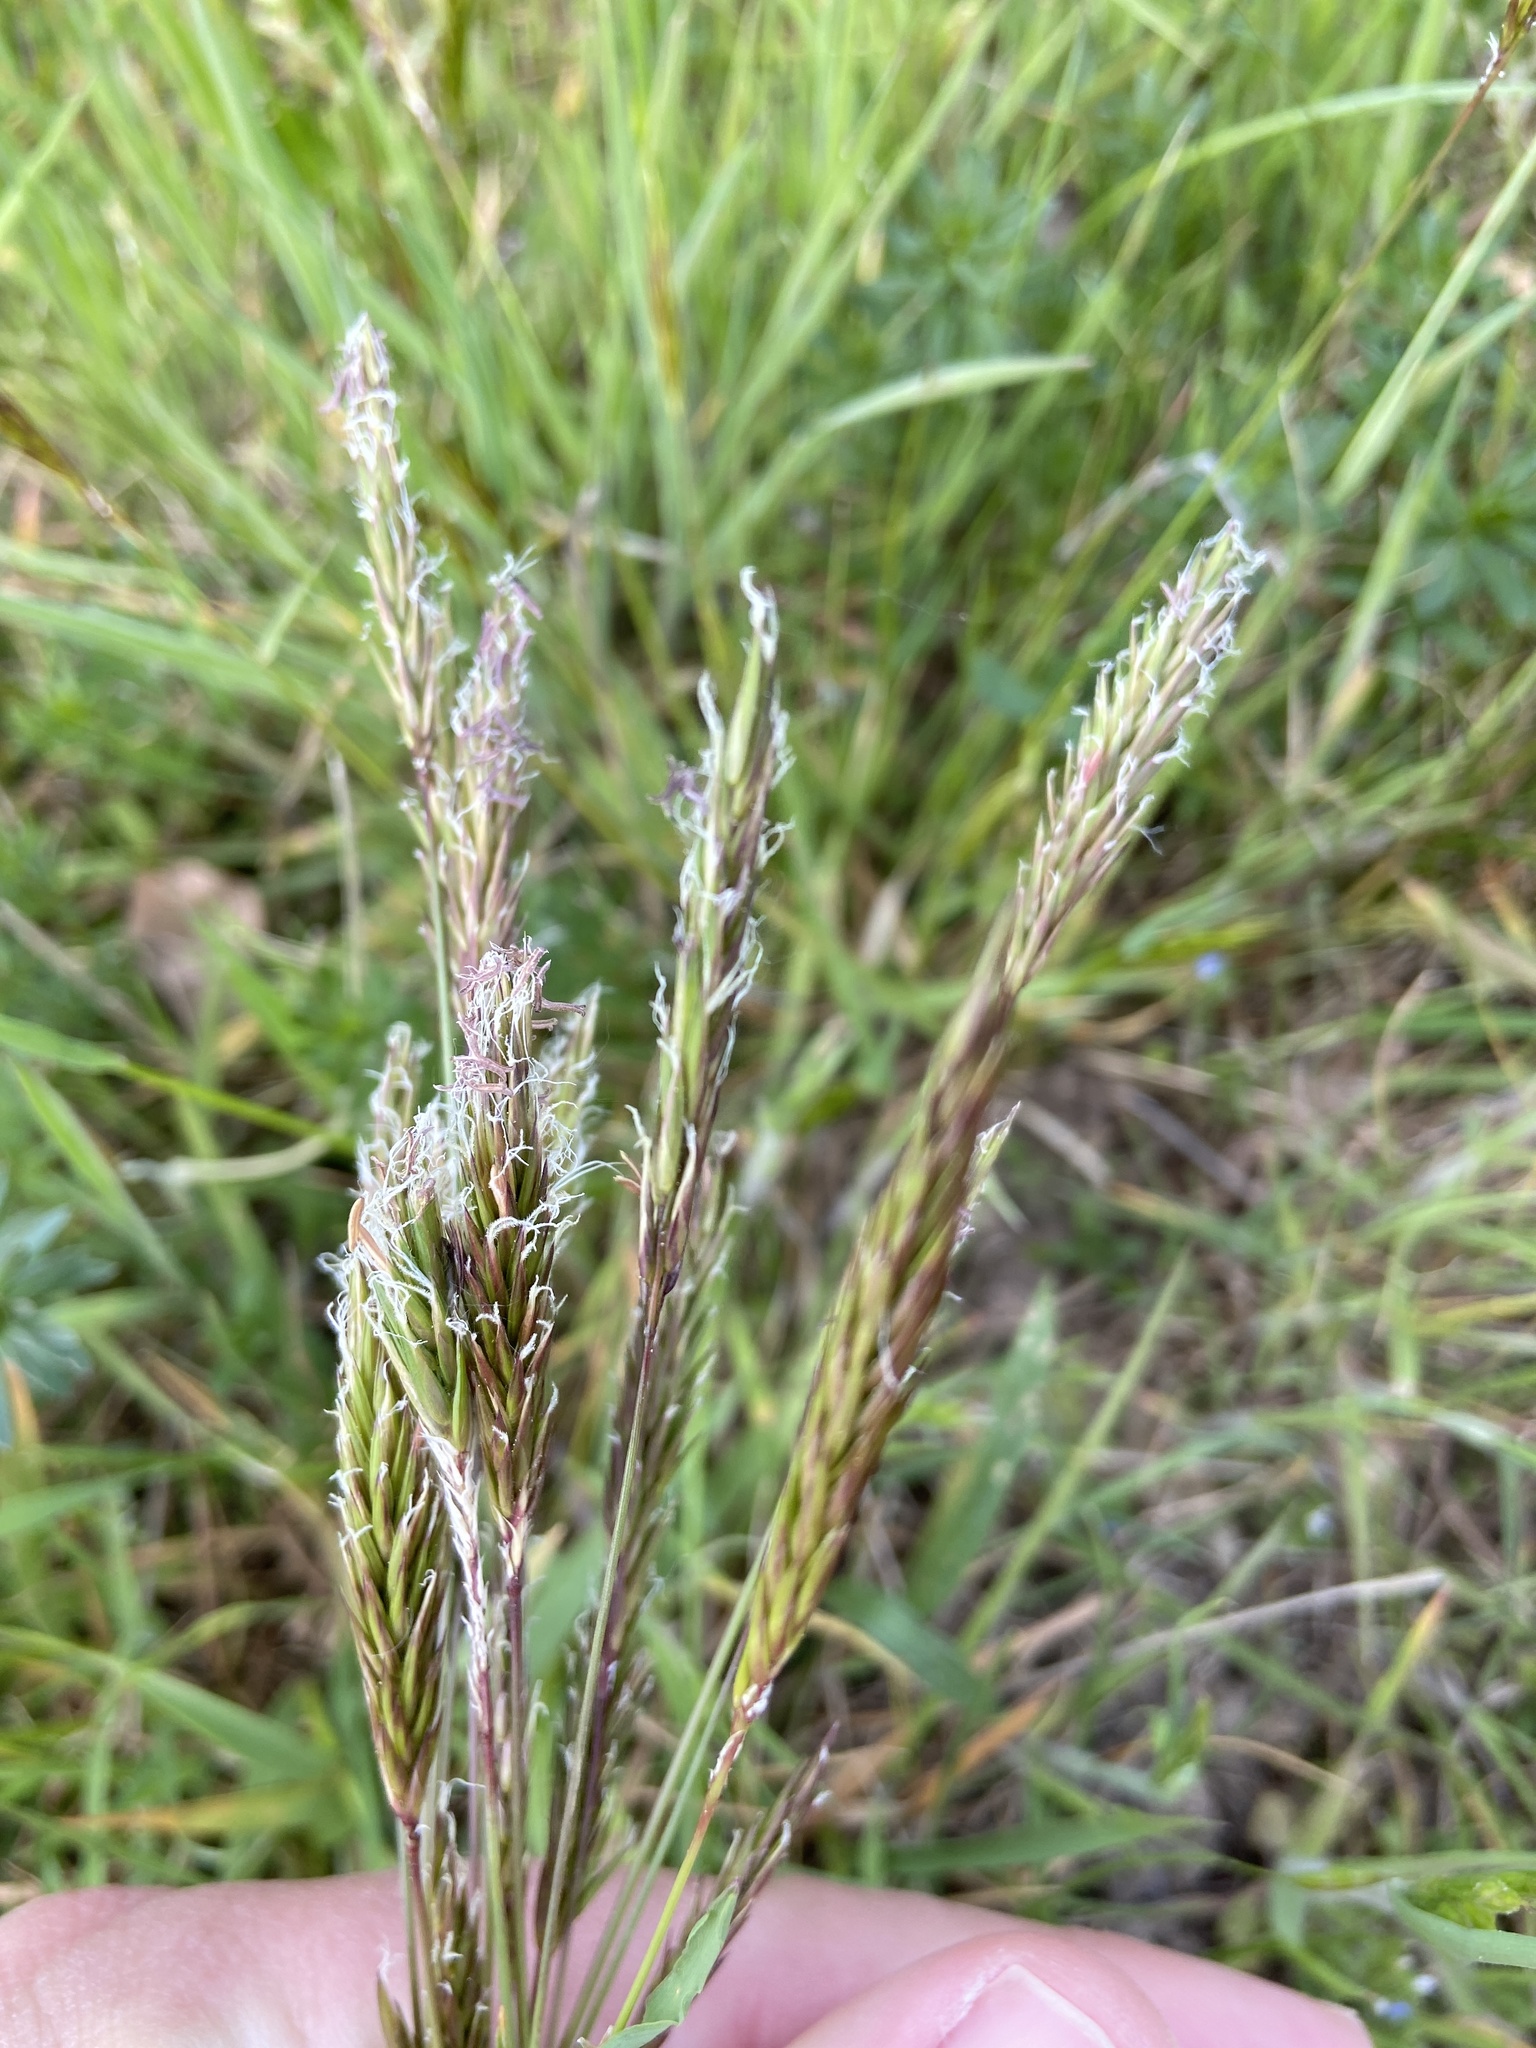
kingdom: Plantae
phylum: Tracheophyta
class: Liliopsida
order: Poales
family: Poaceae
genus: Anthoxanthum
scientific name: Anthoxanthum odoratum
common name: Sweet vernalgrass
